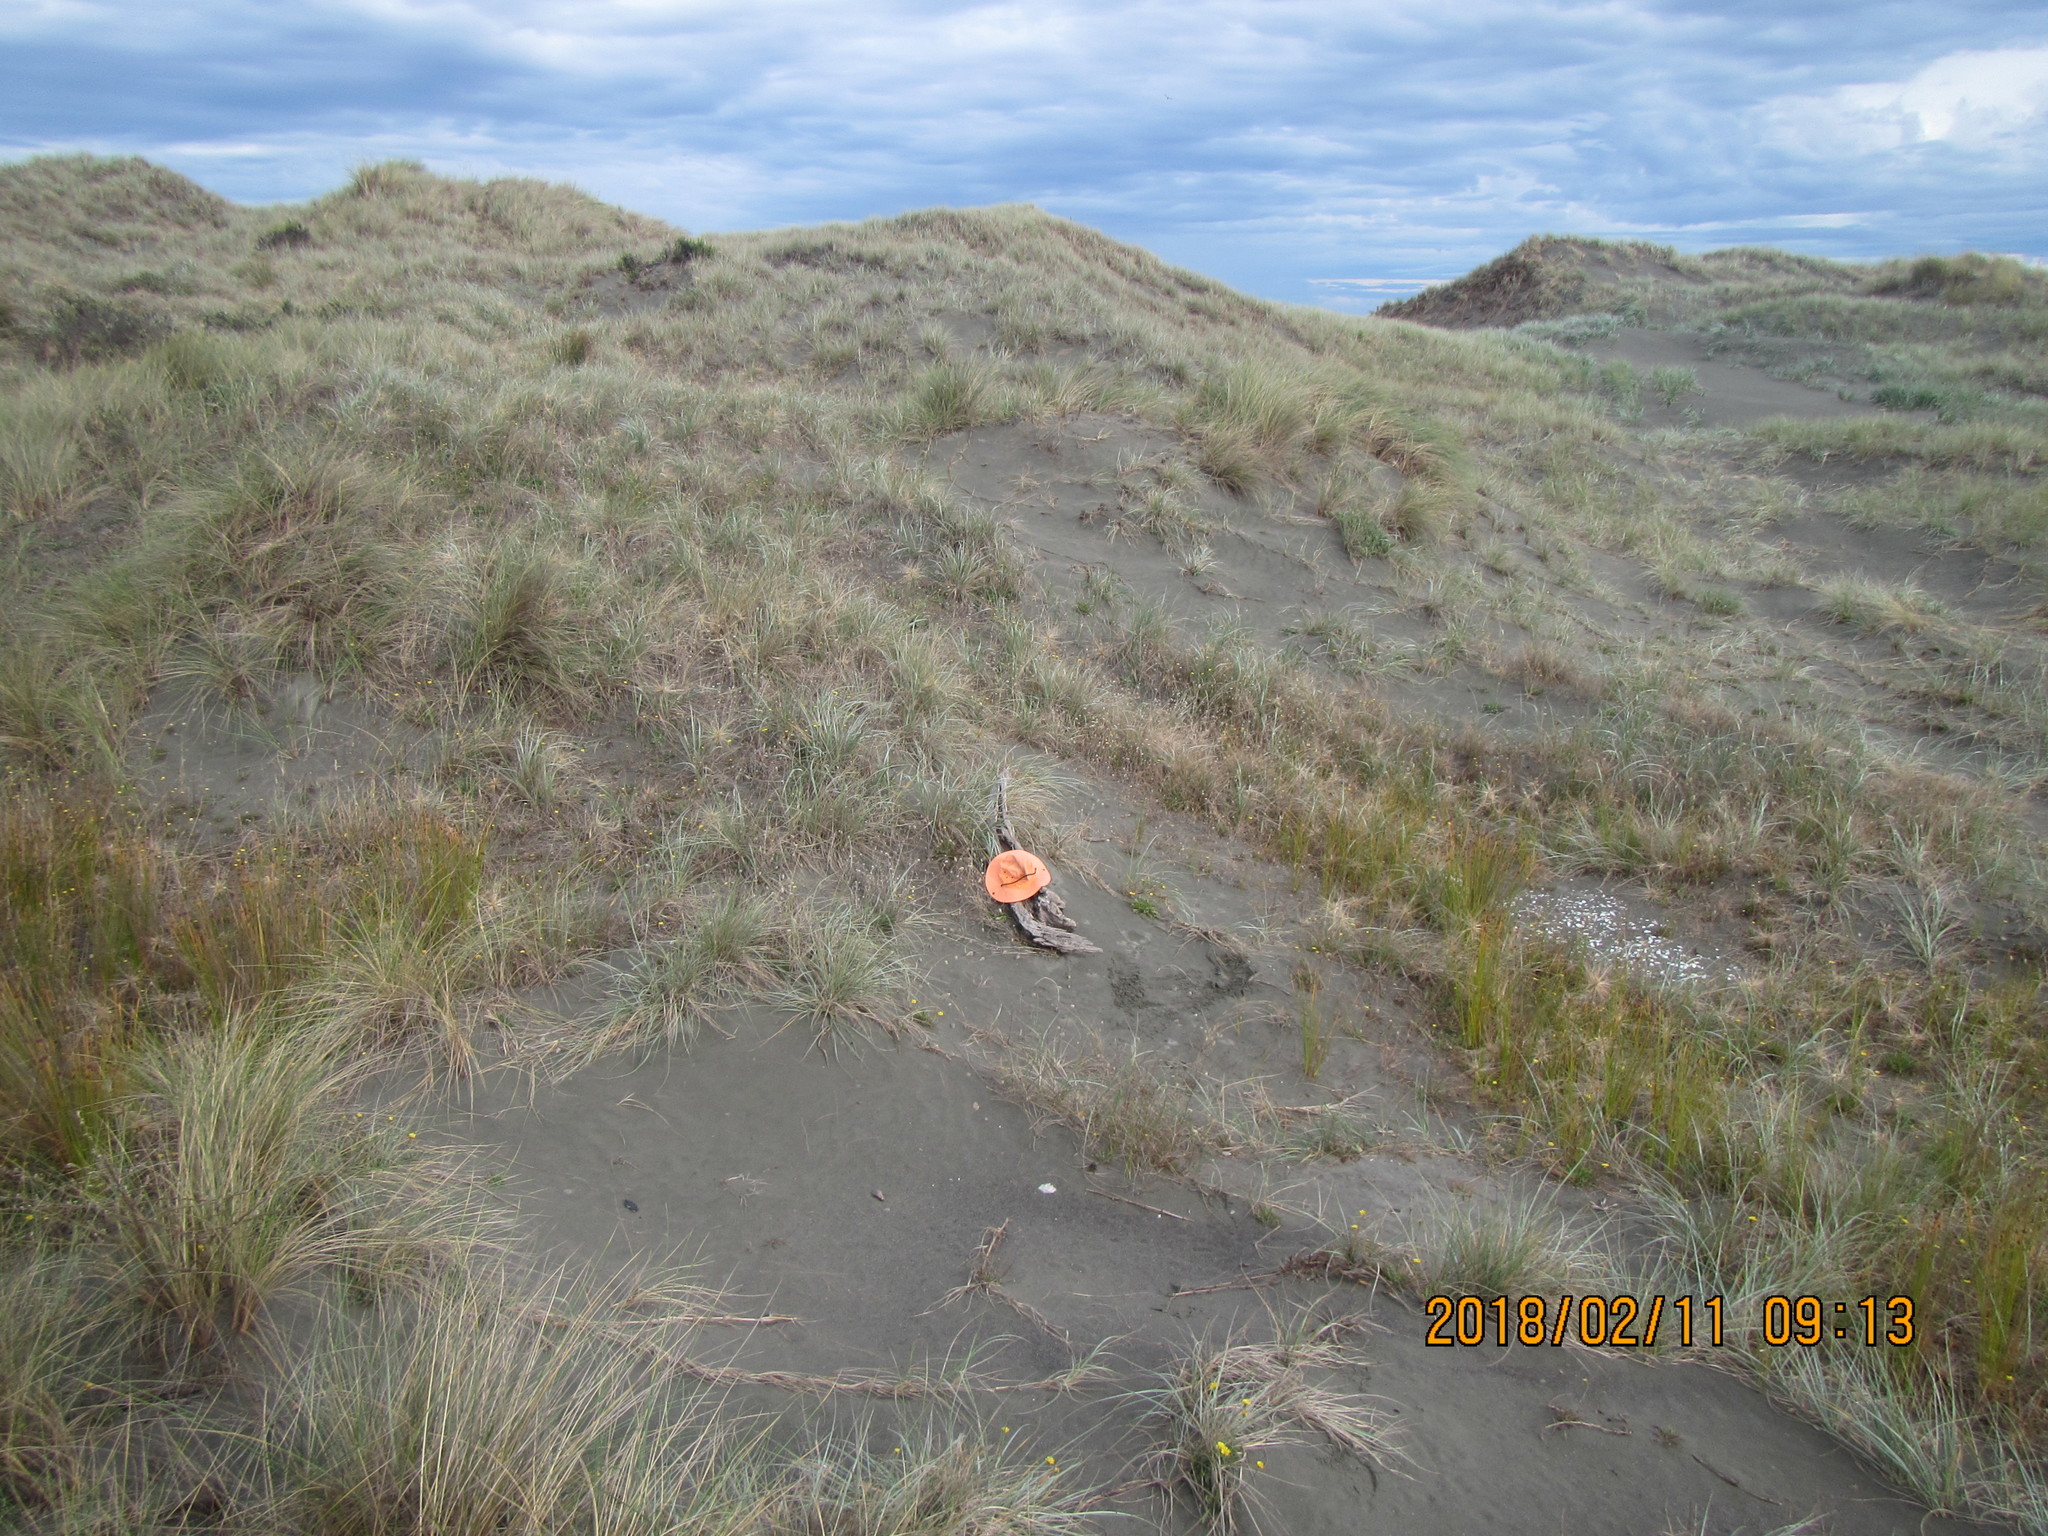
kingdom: Animalia
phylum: Arthropoda
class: Arachnida
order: Araneae
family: Theridiidae
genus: Steatoda
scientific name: Steatoda capensis
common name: Cobweb weaver
